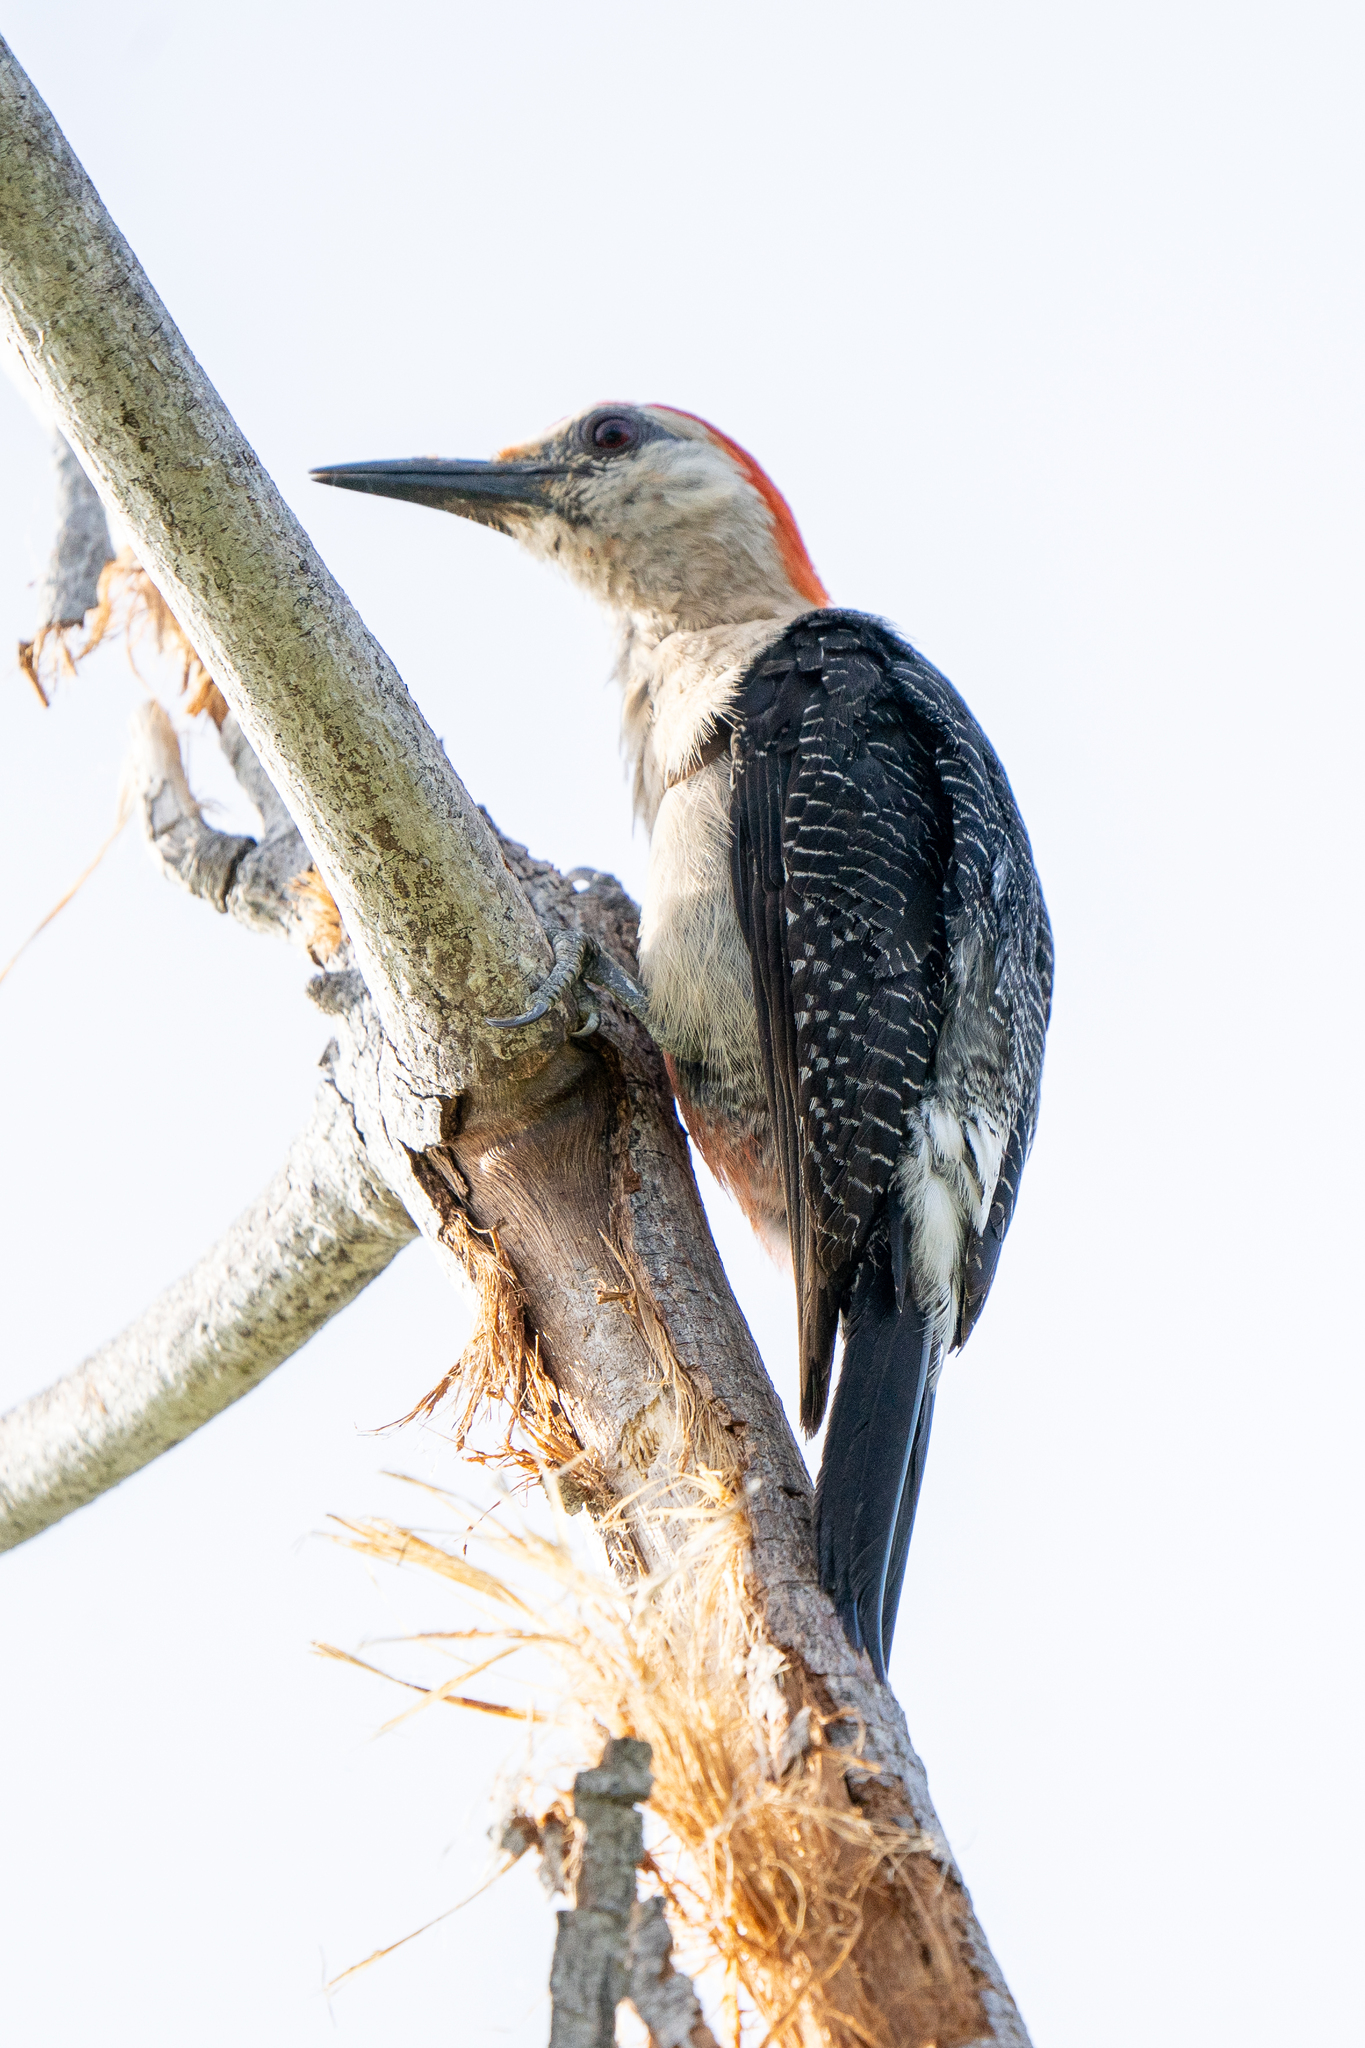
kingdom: Animalia
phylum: Chordata
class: Aves
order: Piciformes
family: Picidae
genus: Melanerpes
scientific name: Melanerpes aurifrons
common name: Golden-fronted woodpecker
